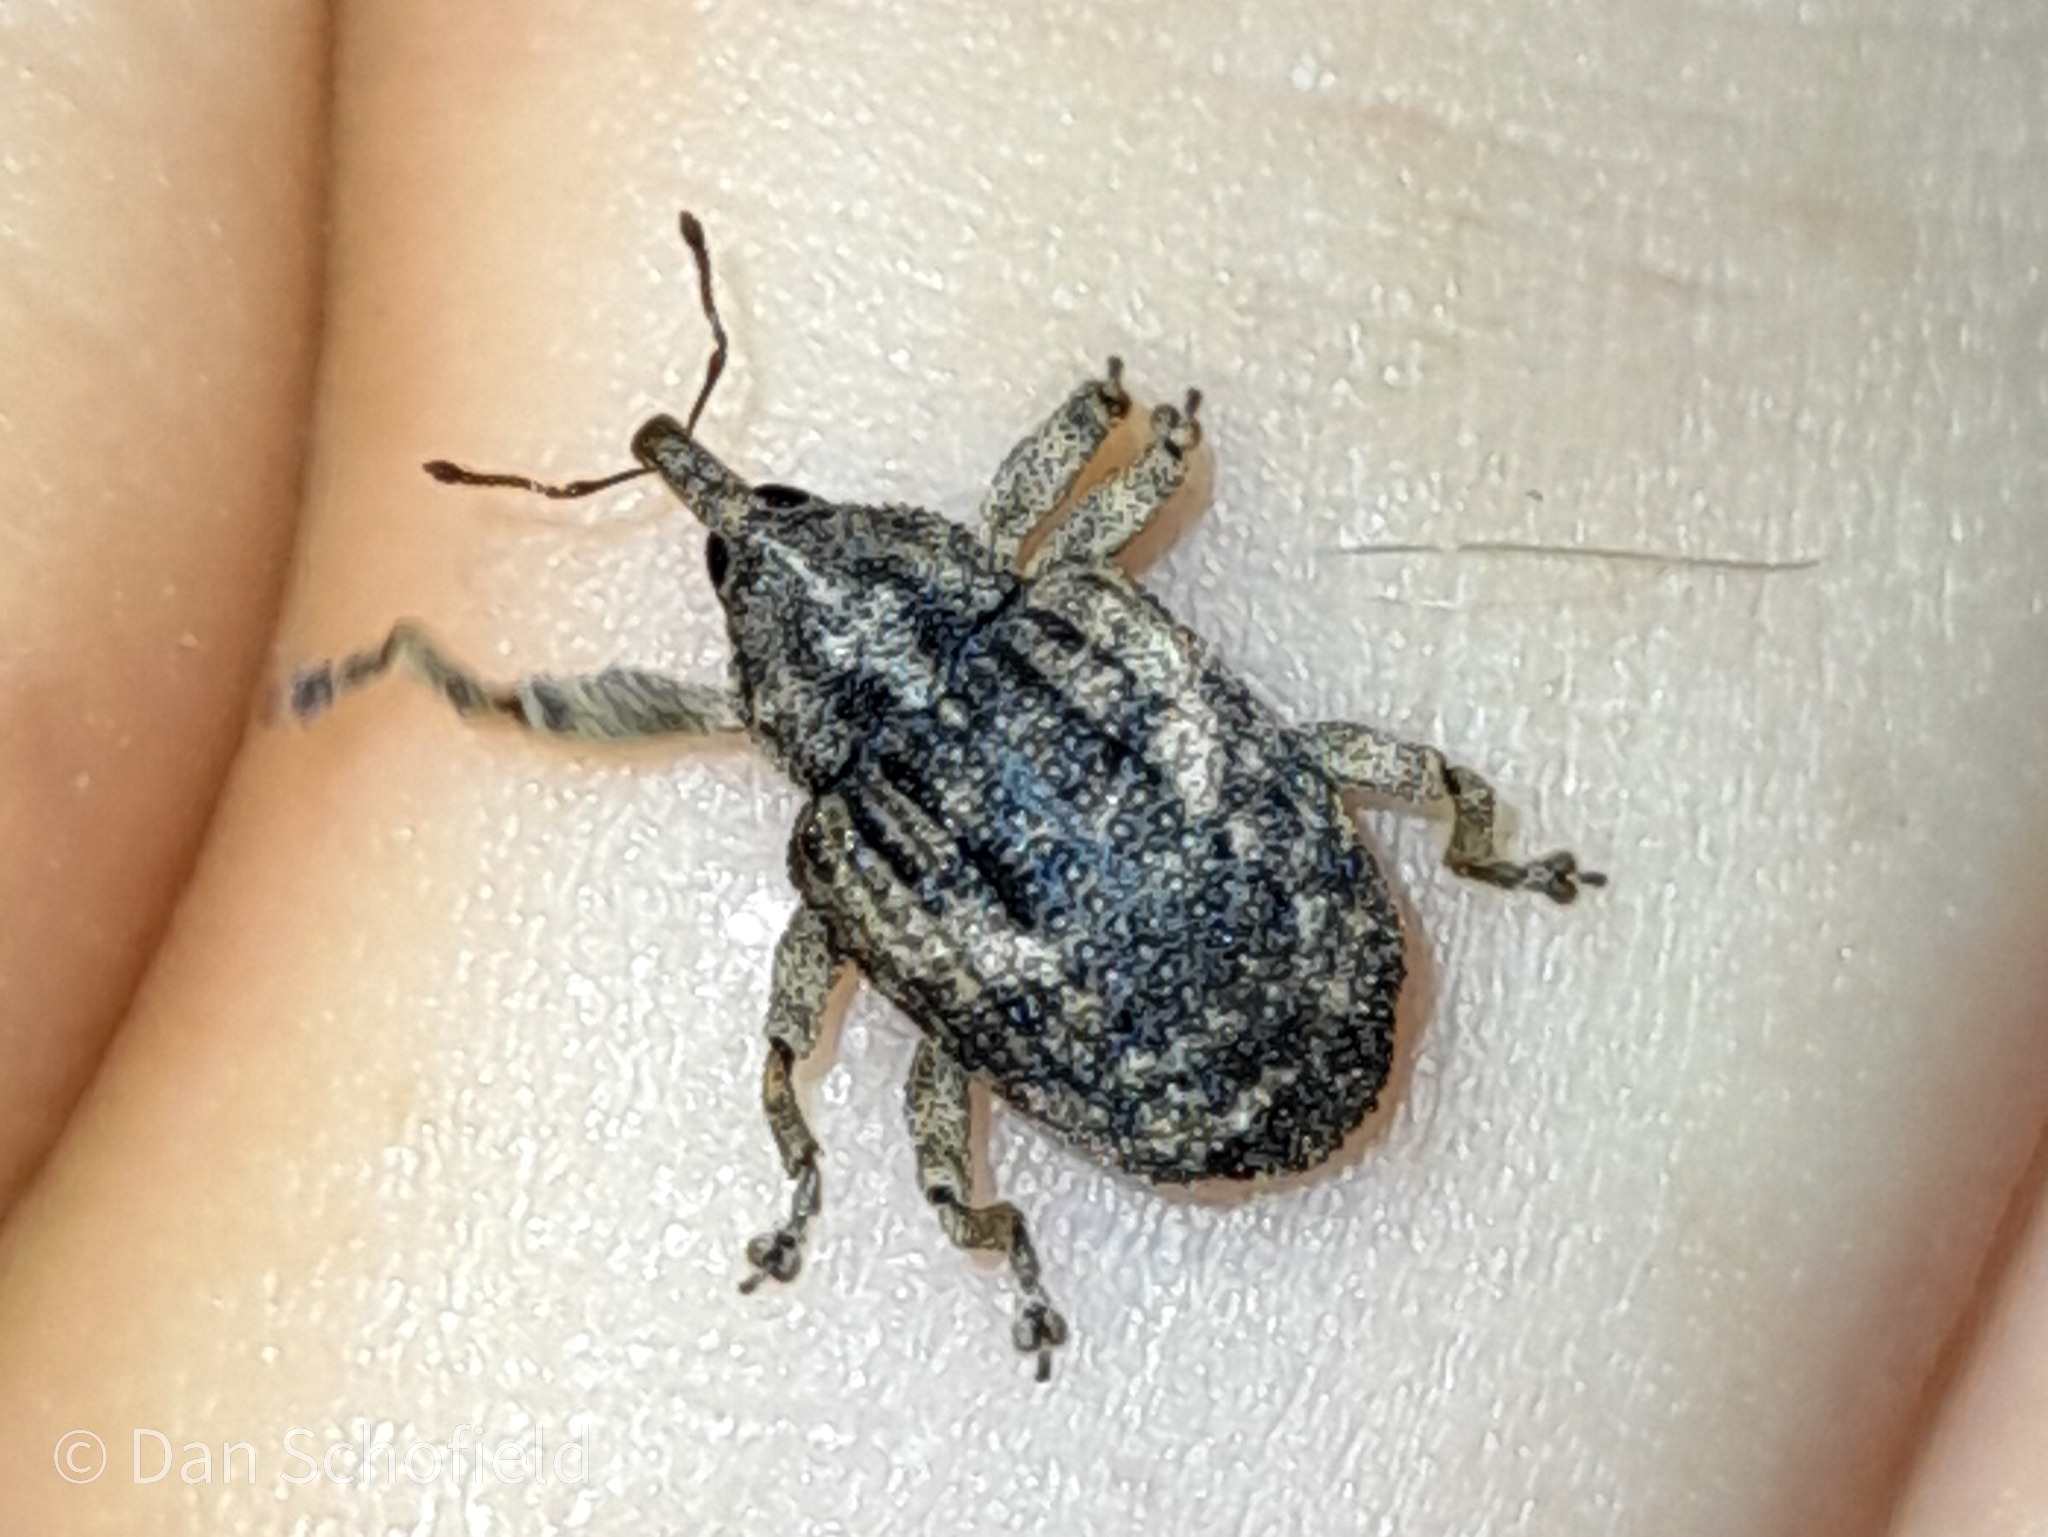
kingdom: Animalia
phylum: Arthropoda
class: Insecta
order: Coleoptera
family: Curculionidae
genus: Sternochetus
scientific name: Sternochetus mangiferae
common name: Mango seed weevil
